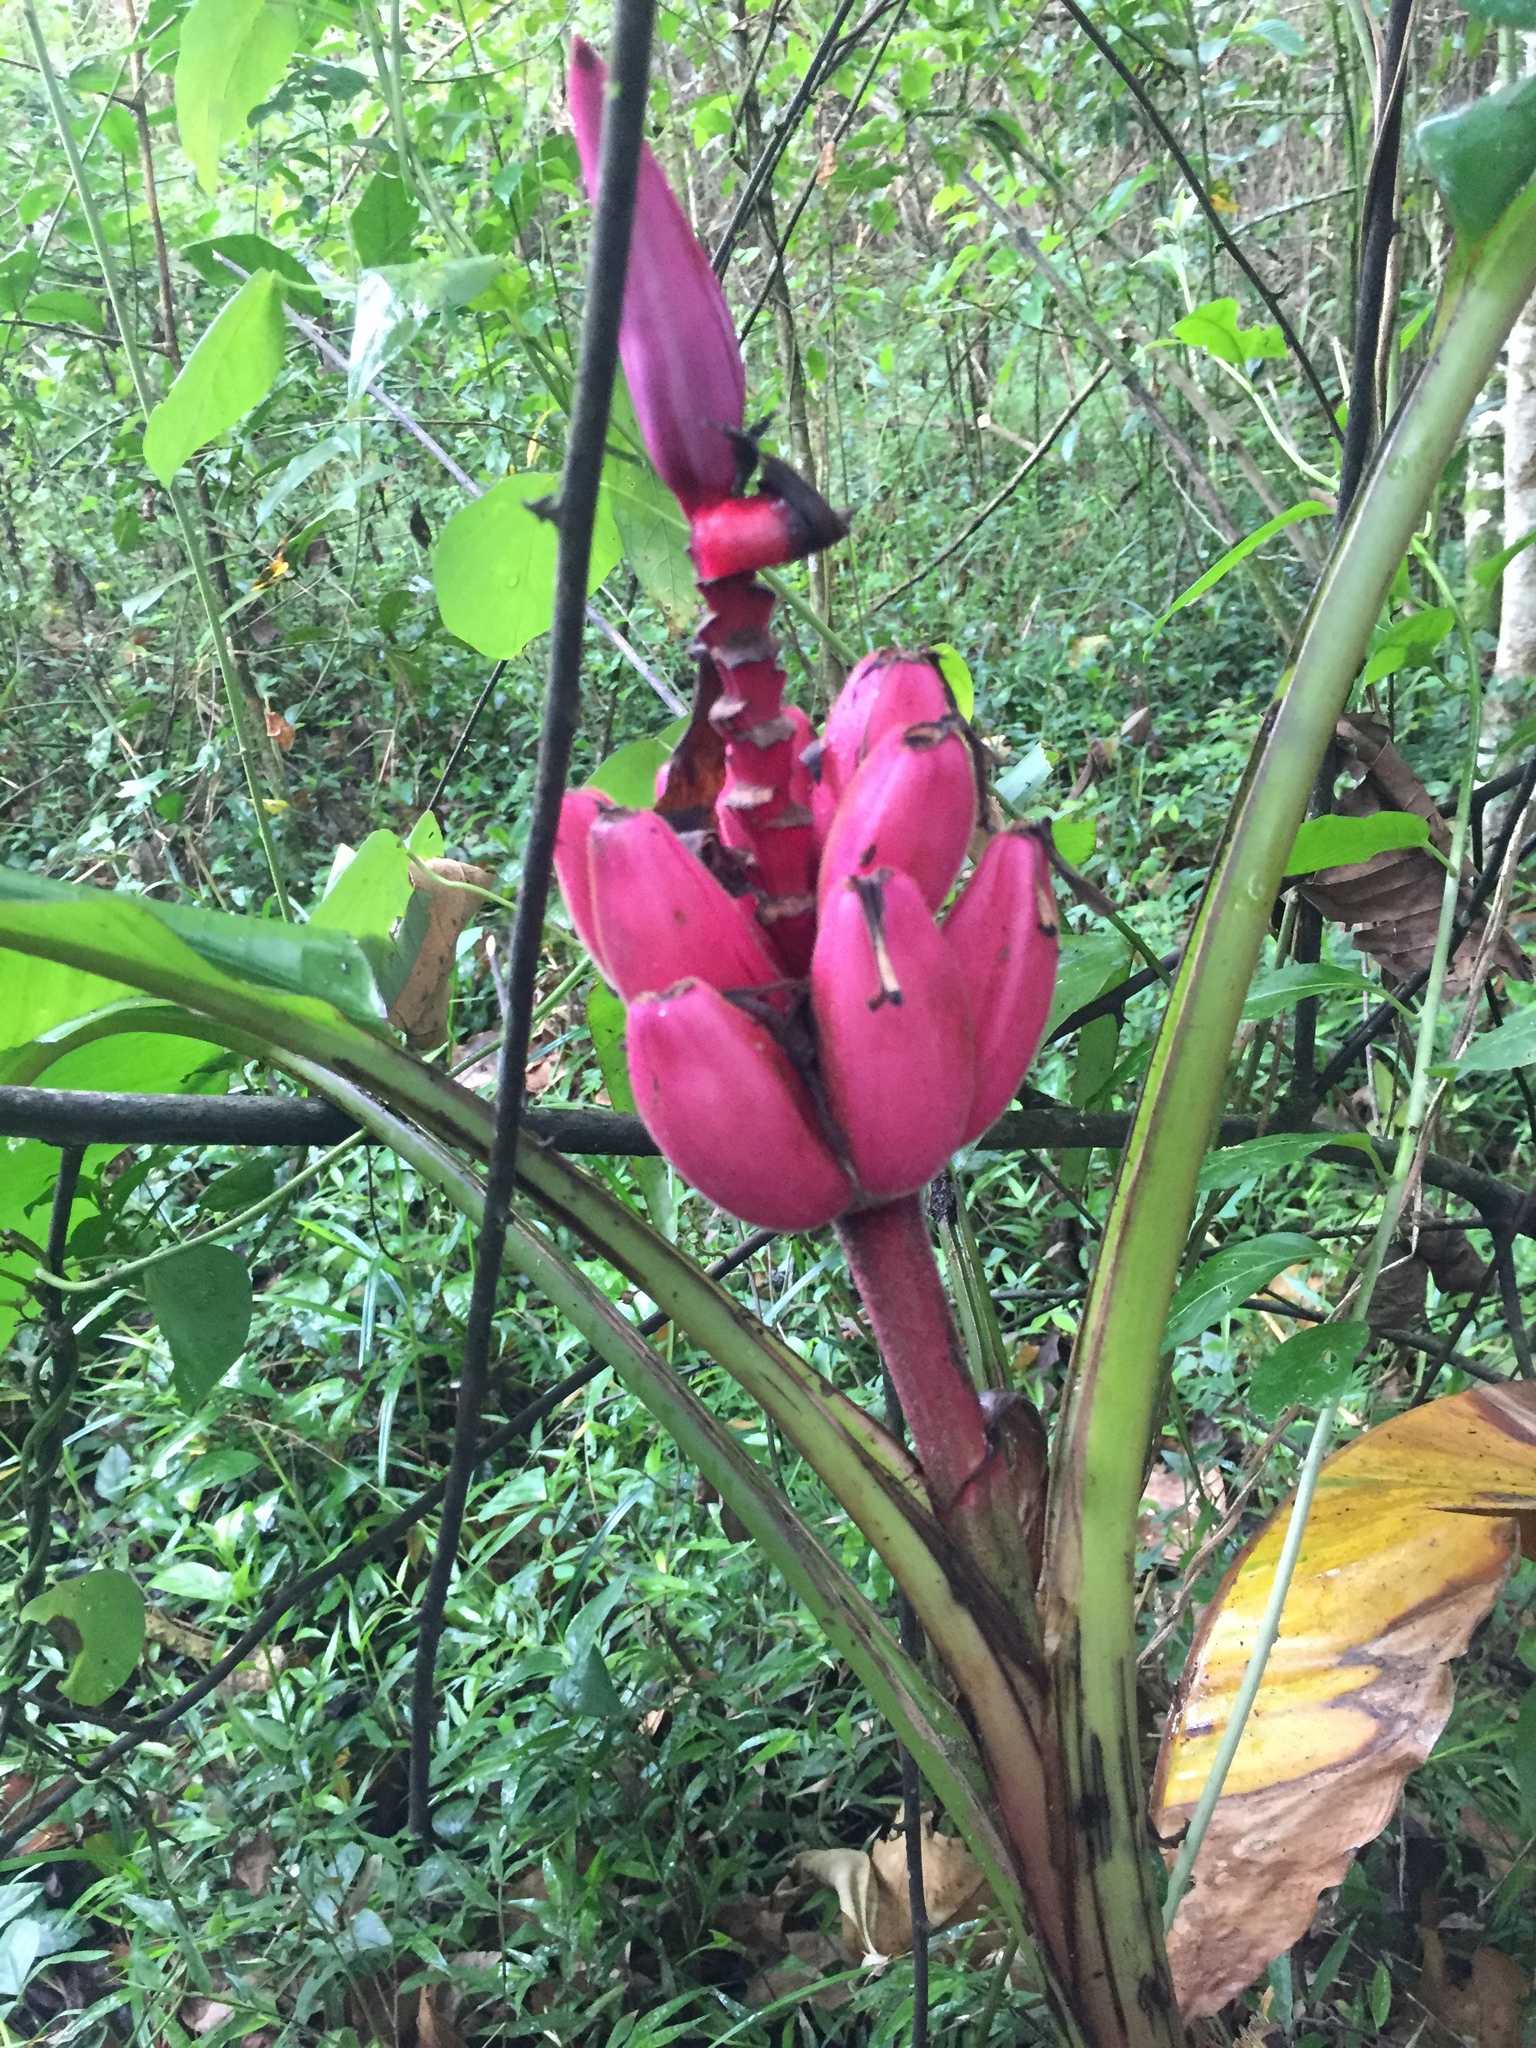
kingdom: Plantae
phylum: Tracheophyta
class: Liliopsida
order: Zingiberales
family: Musaceae
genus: Musa
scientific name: Musa velutina
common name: Pink velvet banana
